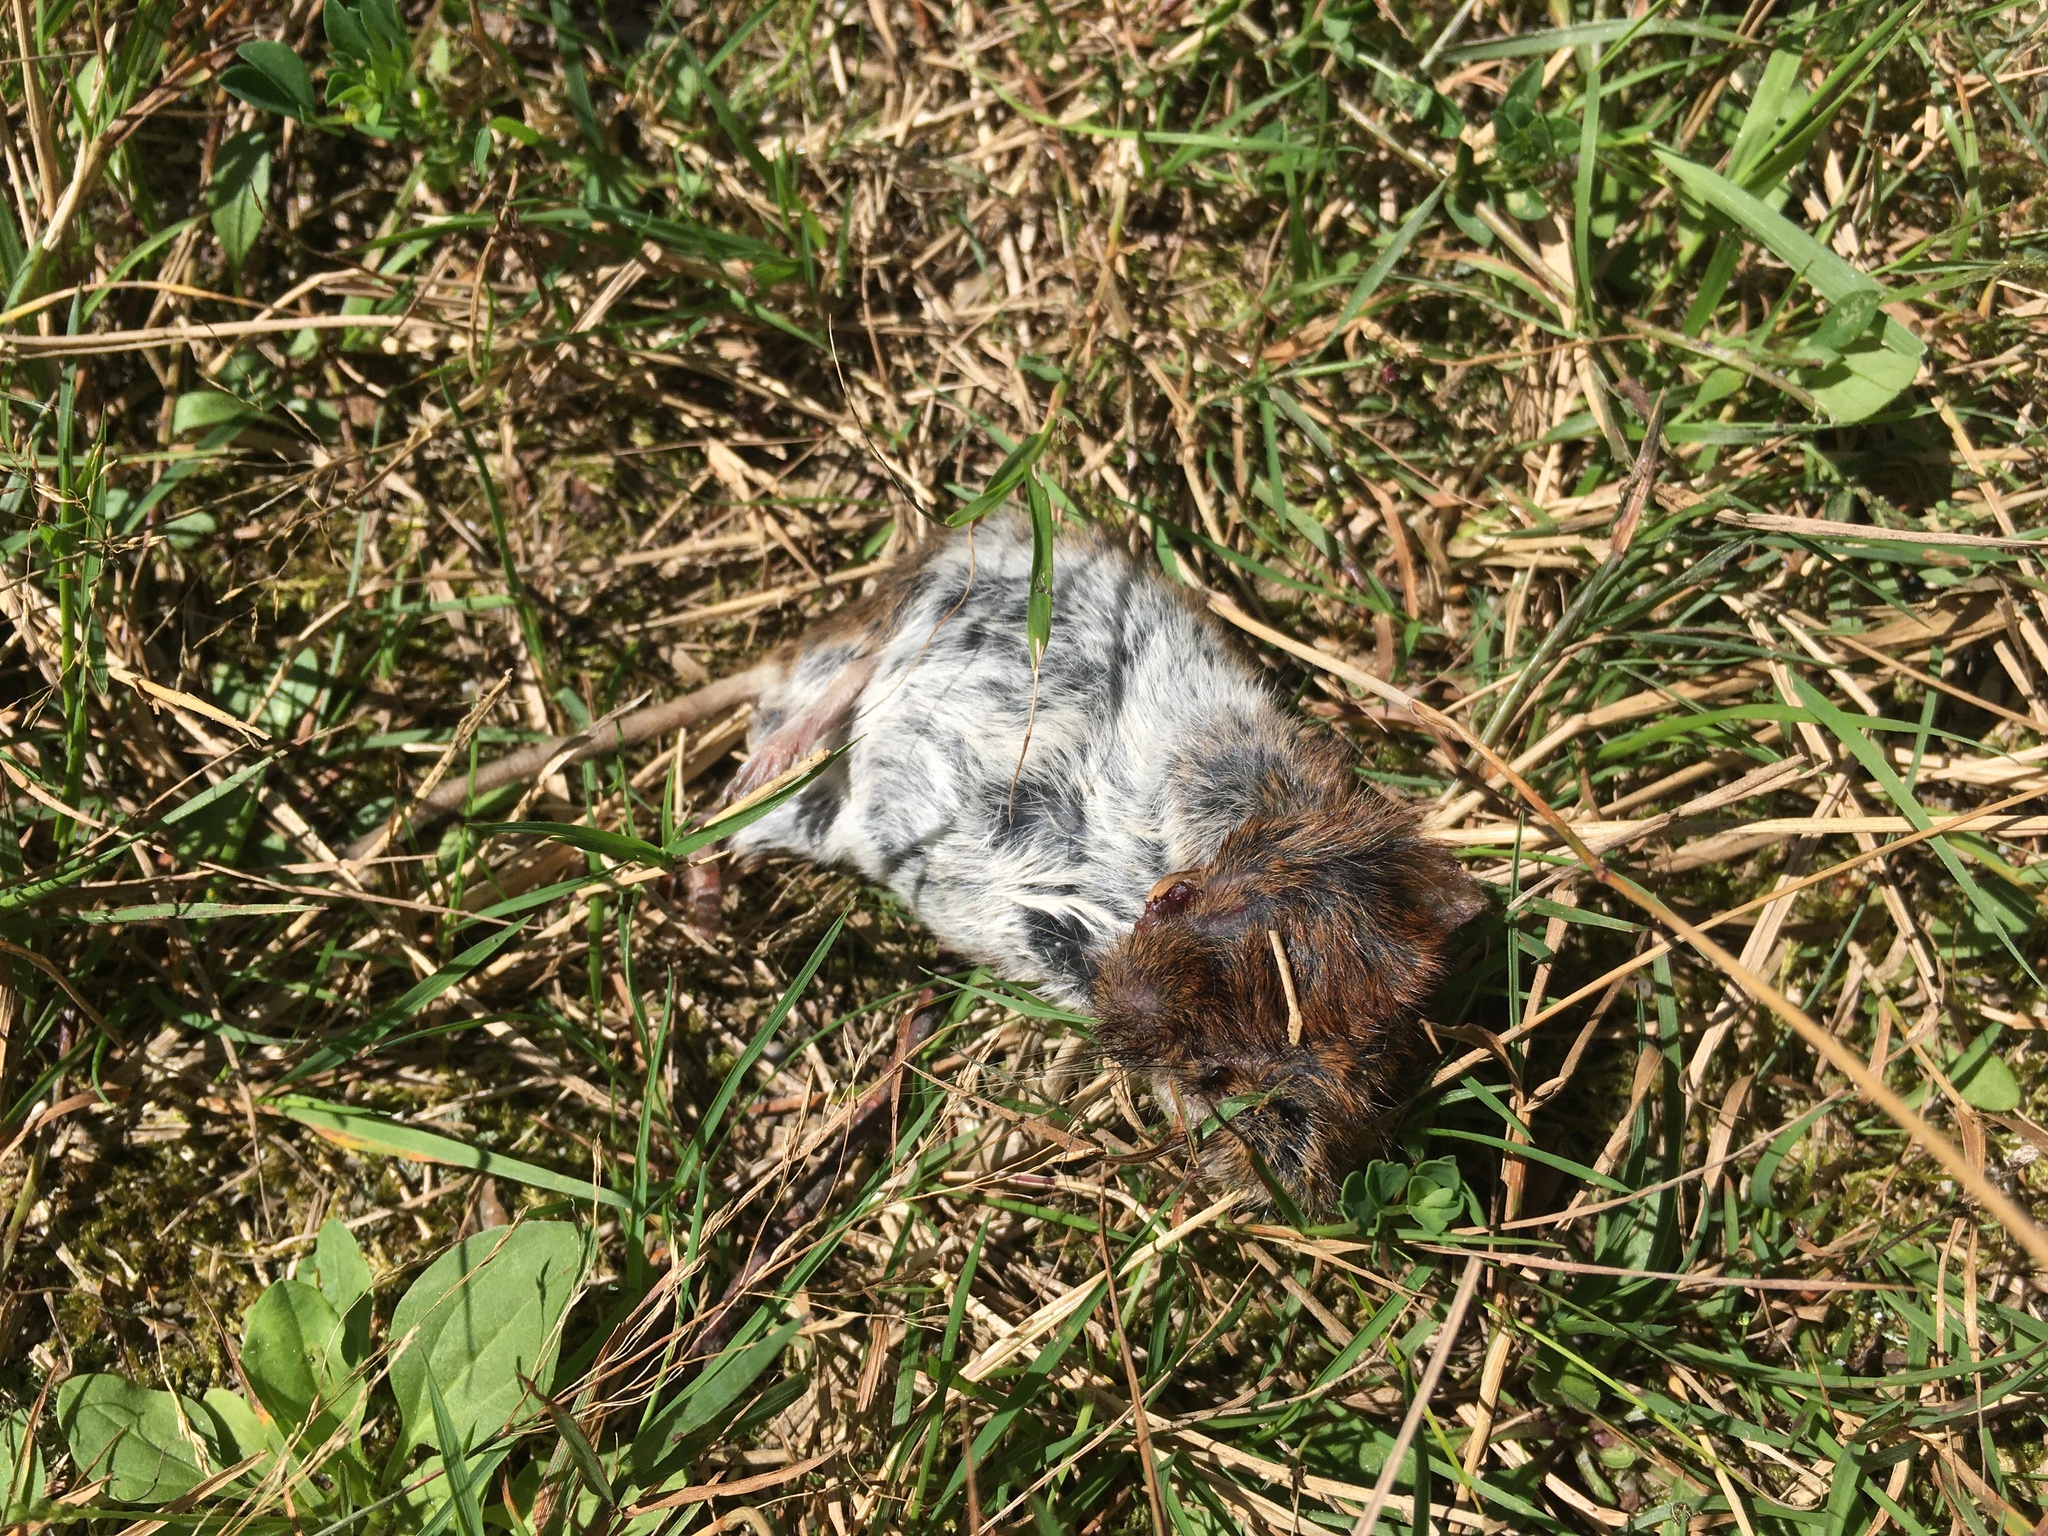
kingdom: Animalia
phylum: Chordata
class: Mammalia
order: Rodentia
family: Cricetidae
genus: Myodes
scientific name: Myodes glareolus
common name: Bank vole
